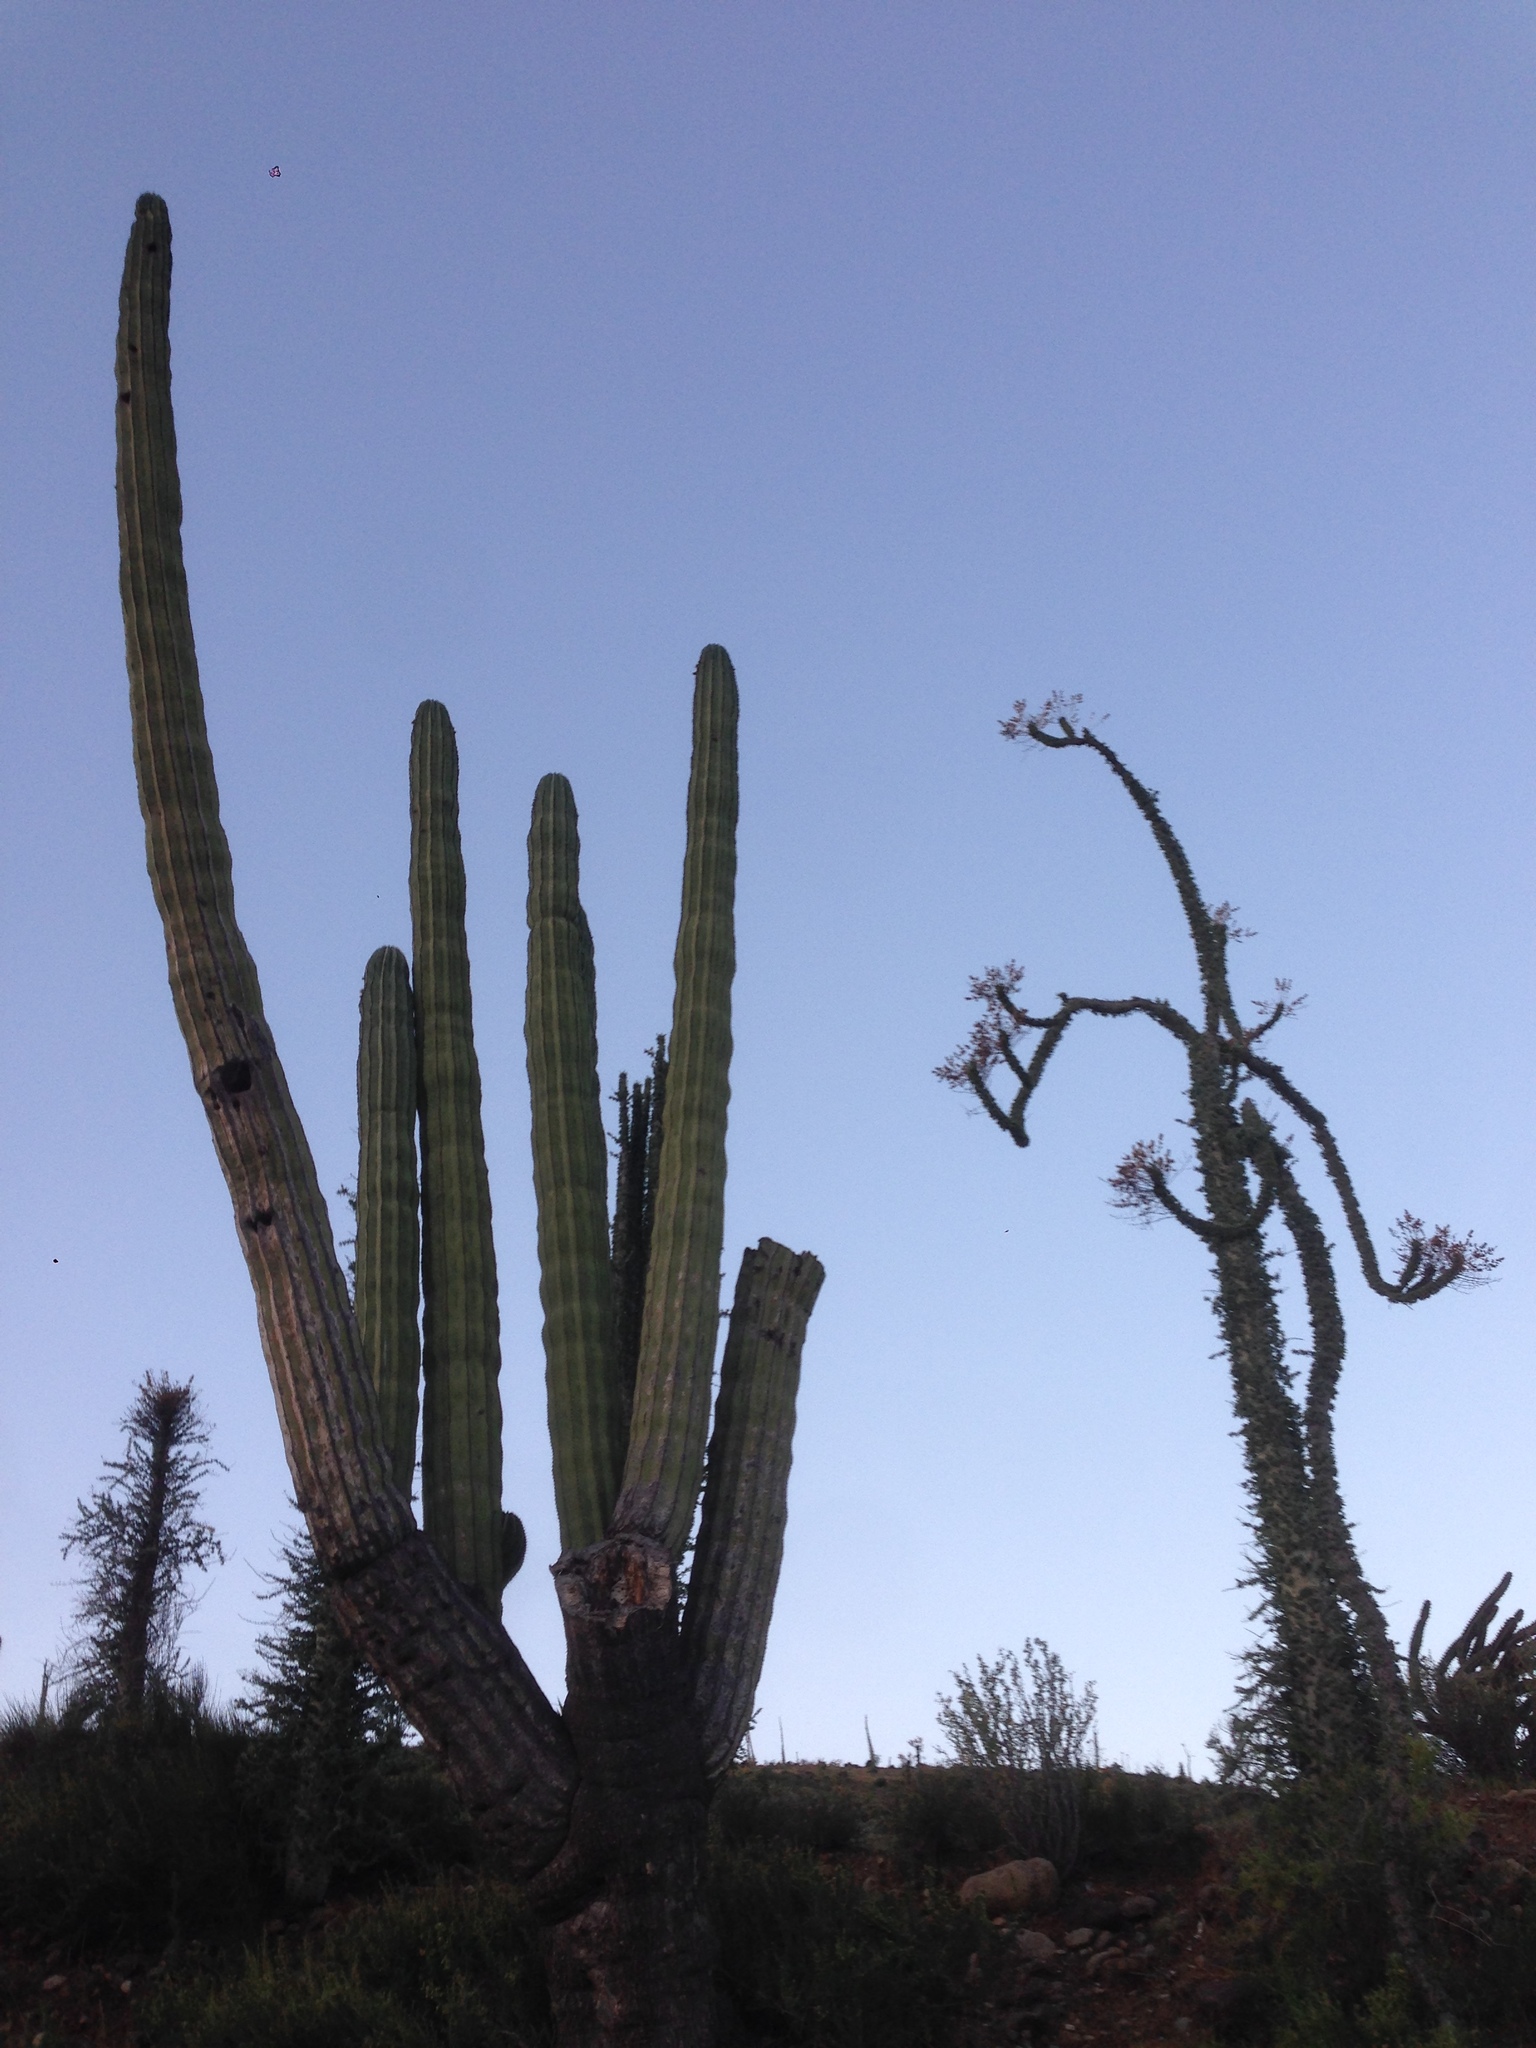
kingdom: Plantae
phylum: Tracheophyta
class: Magnoliopsida
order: Caryophyllales
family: Cactaceae
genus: Pachycereus
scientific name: Pachycereus pringlei
